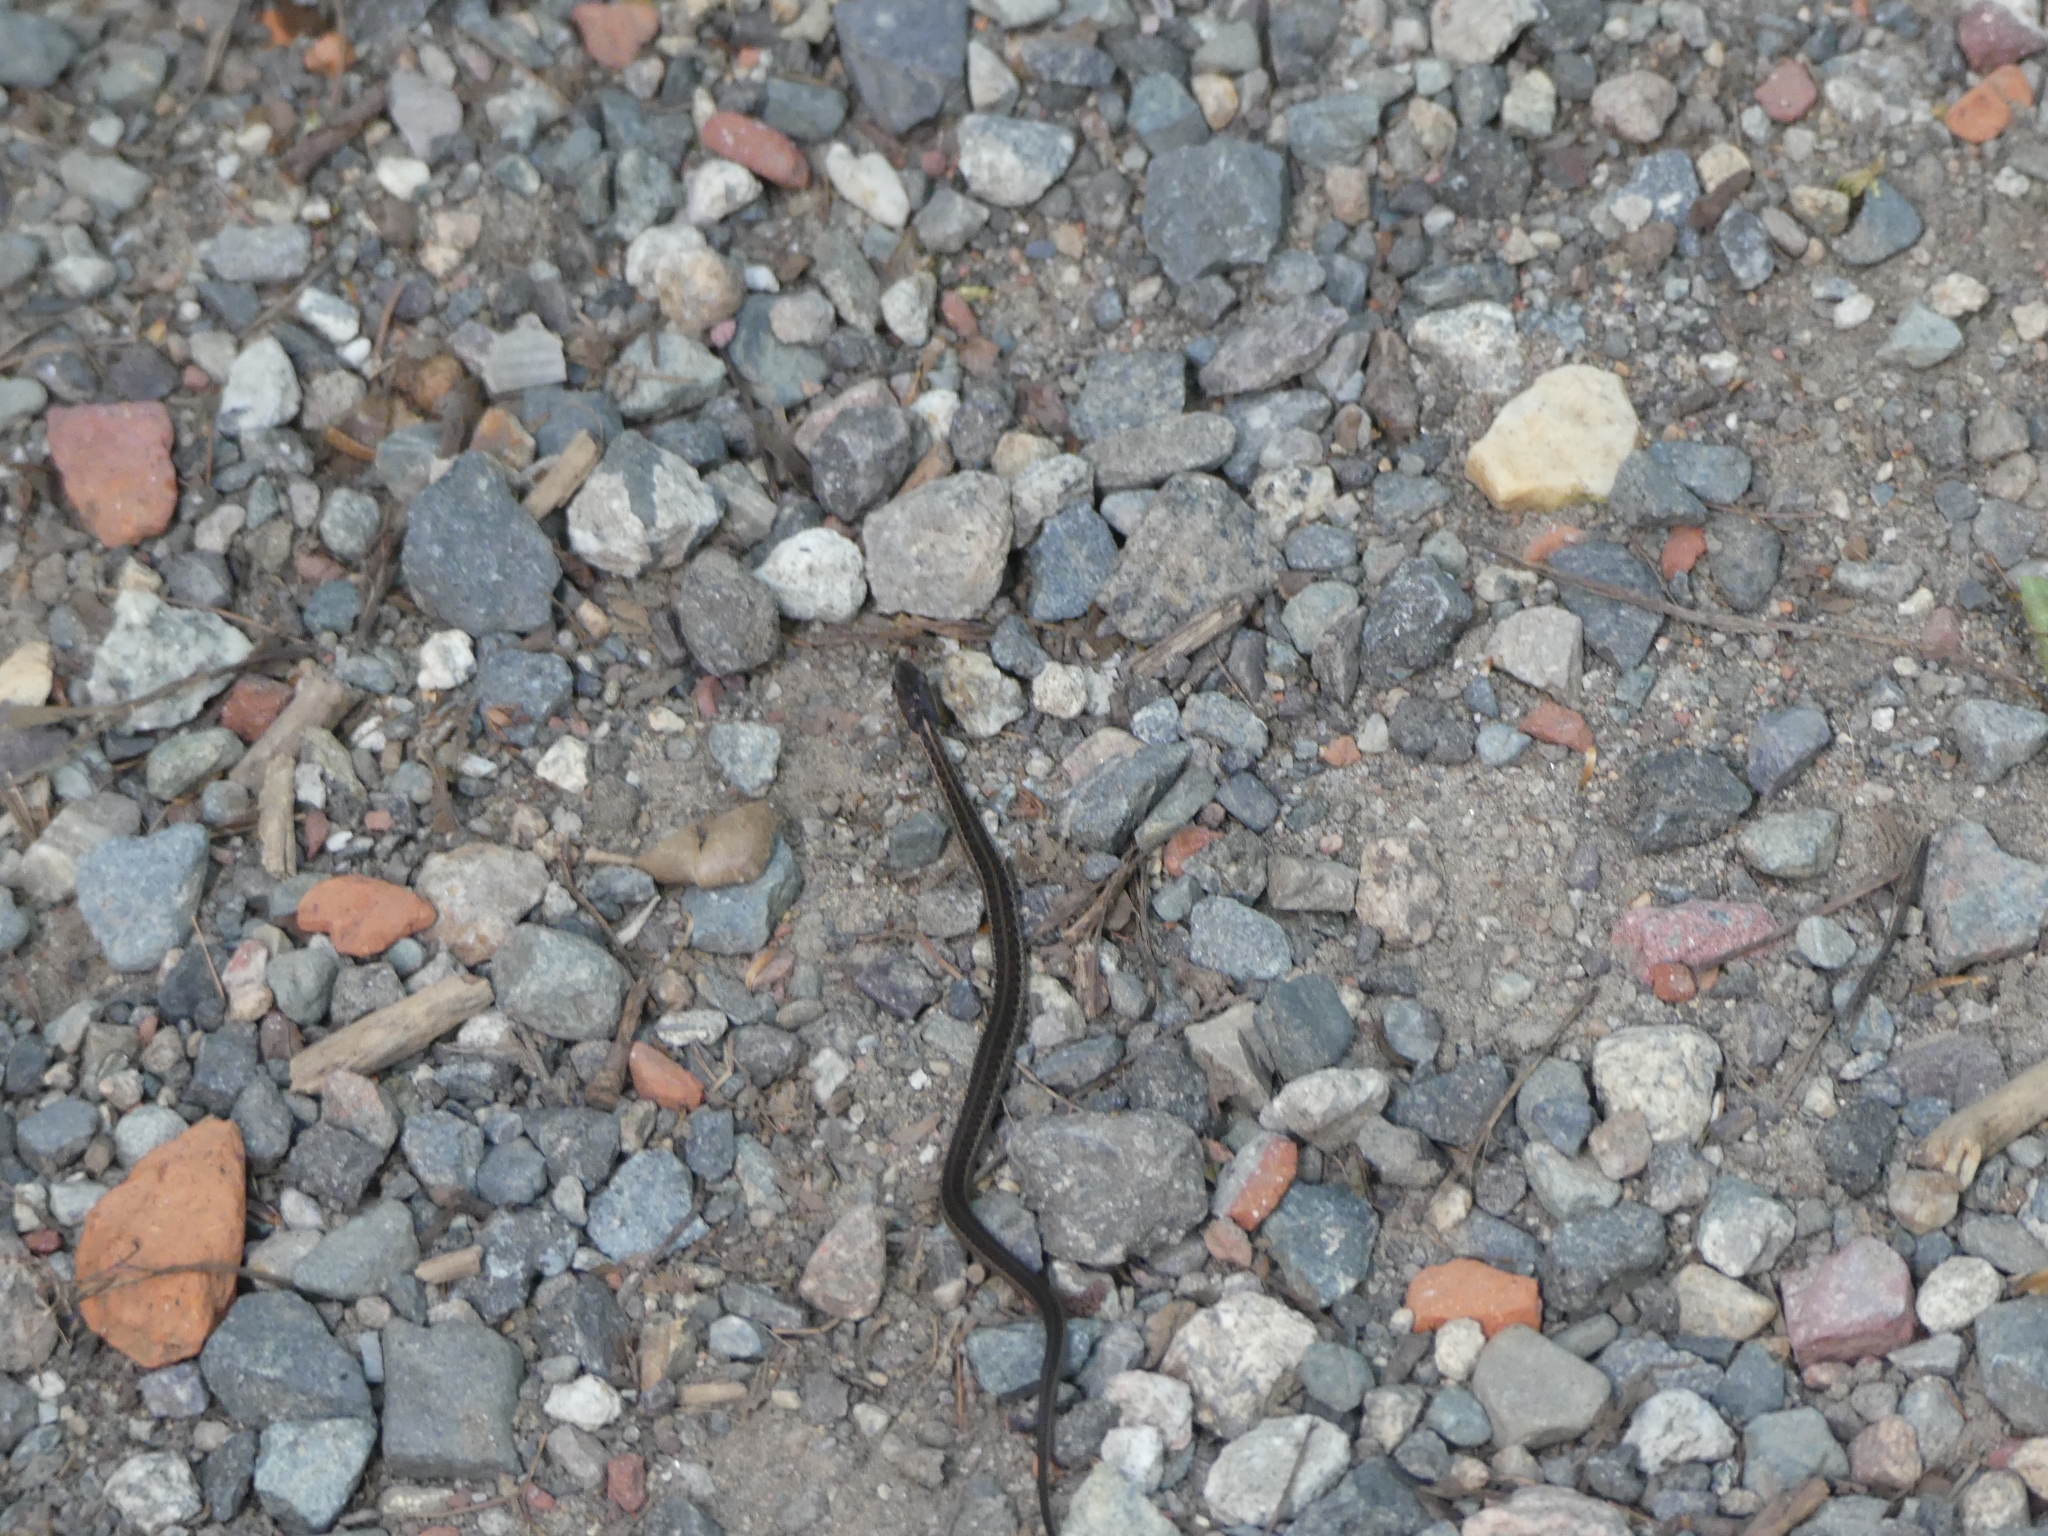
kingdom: Animalia
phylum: Chordata
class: Squamata
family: Colubridae
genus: Thamnophis
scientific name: Thamnophis sirtalis
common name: Common garter snake
